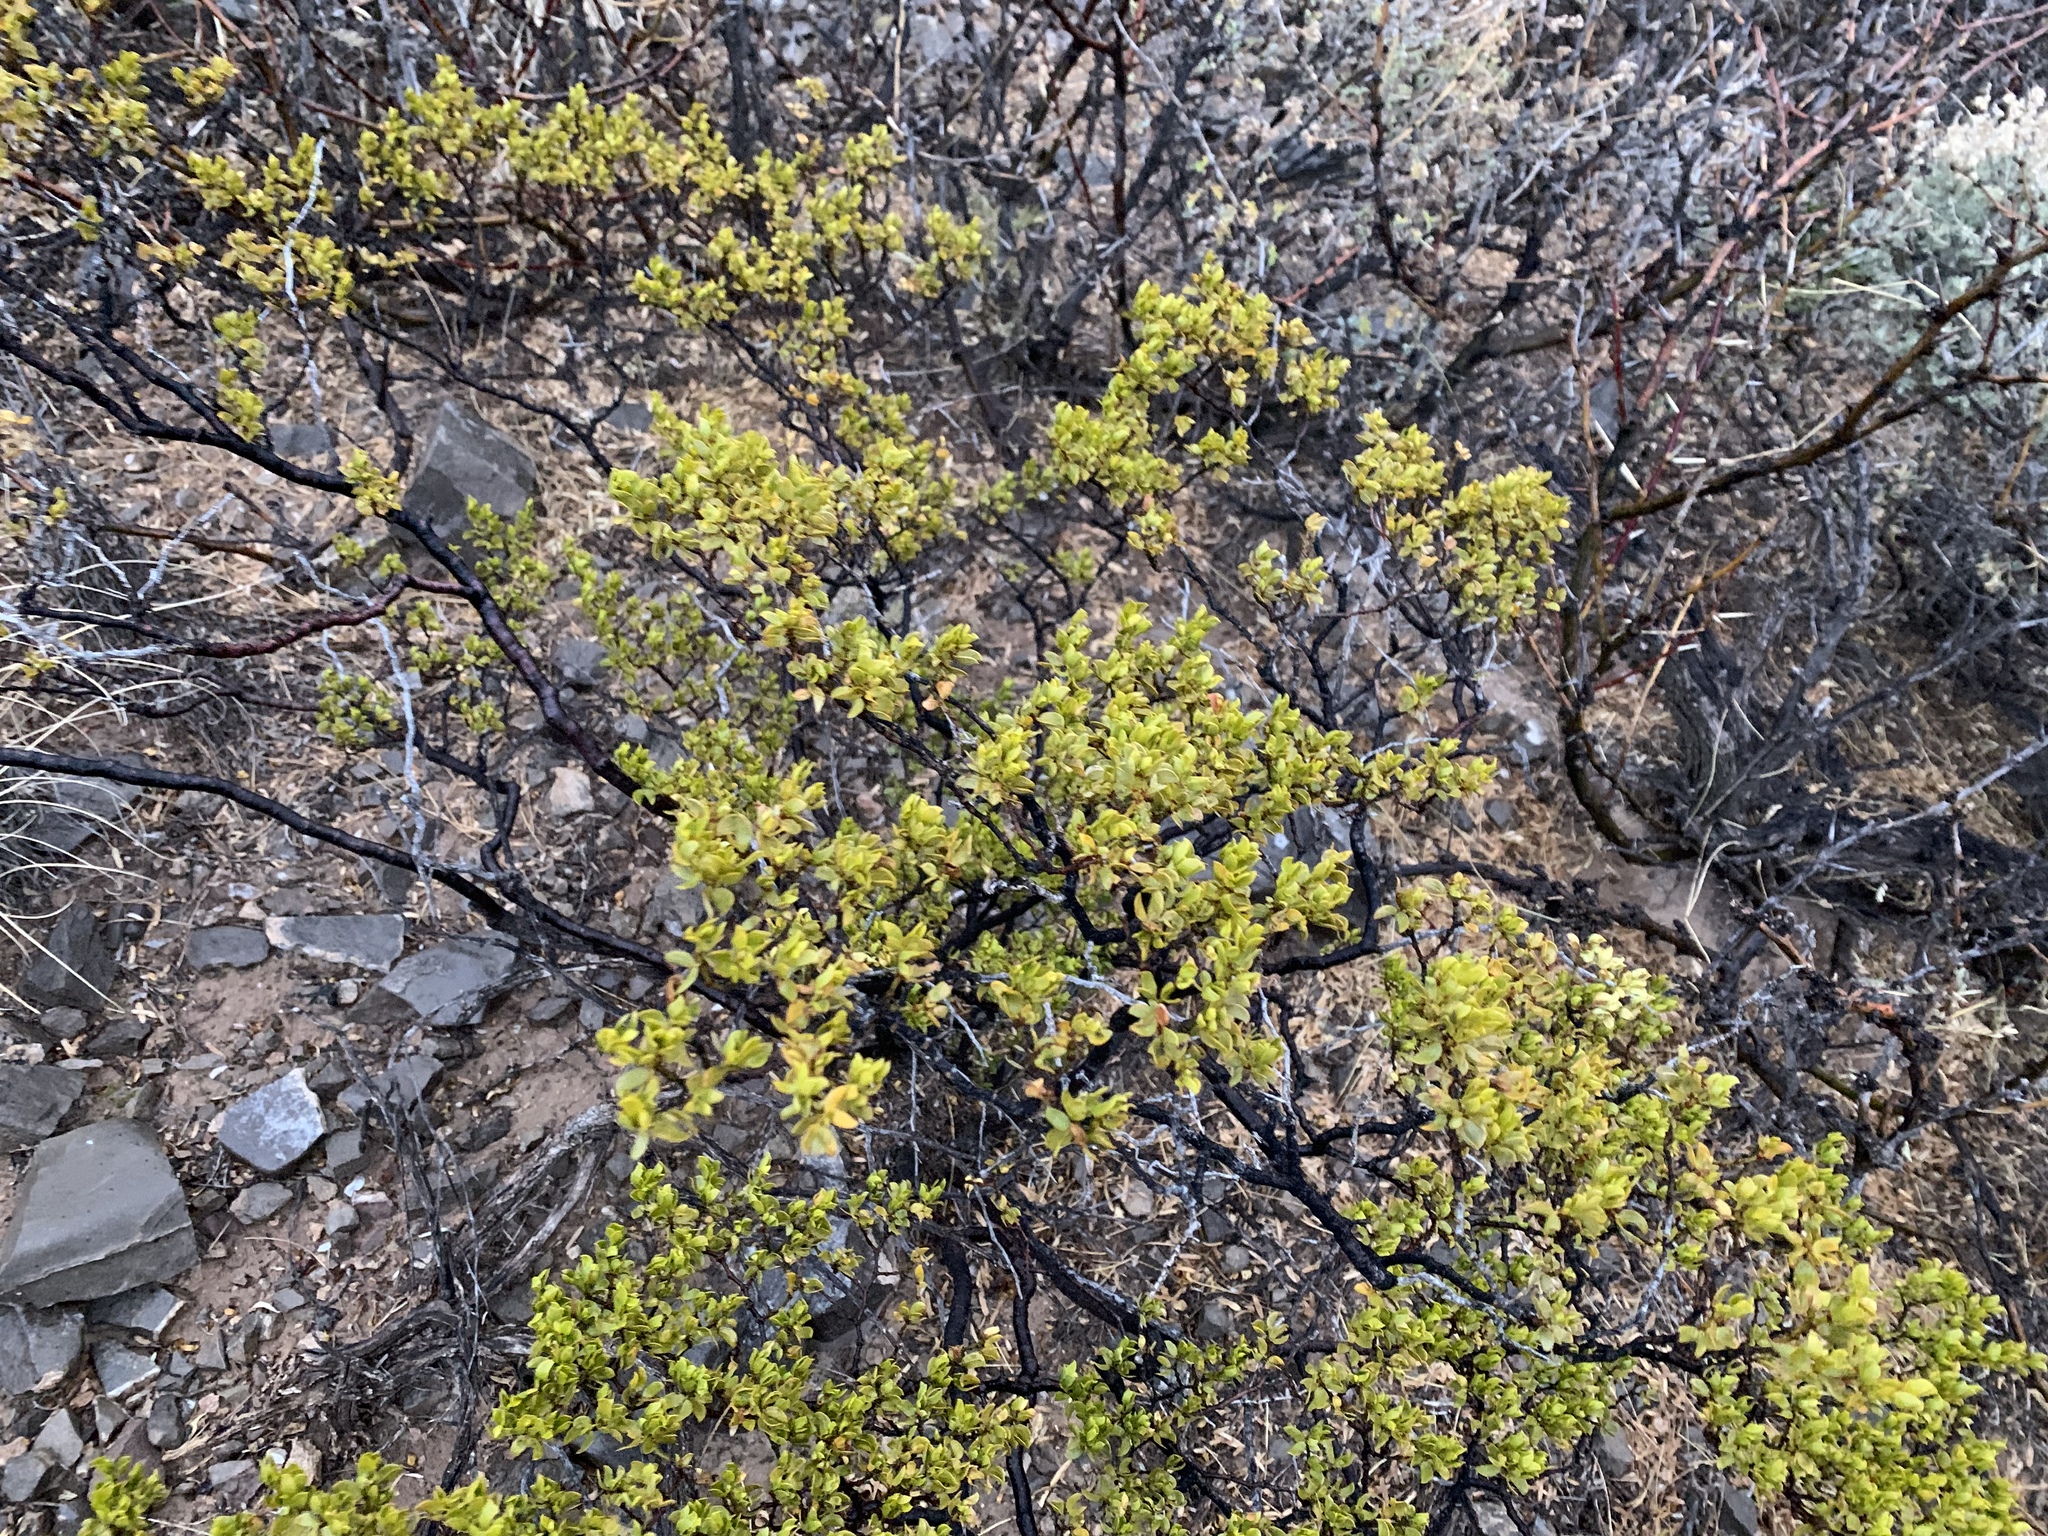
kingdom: Plantae
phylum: Tracheophyta
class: Magnoliopsida
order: Zygophyllales
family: Zygophyllaceae
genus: Larrea
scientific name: Larrea tridentata
